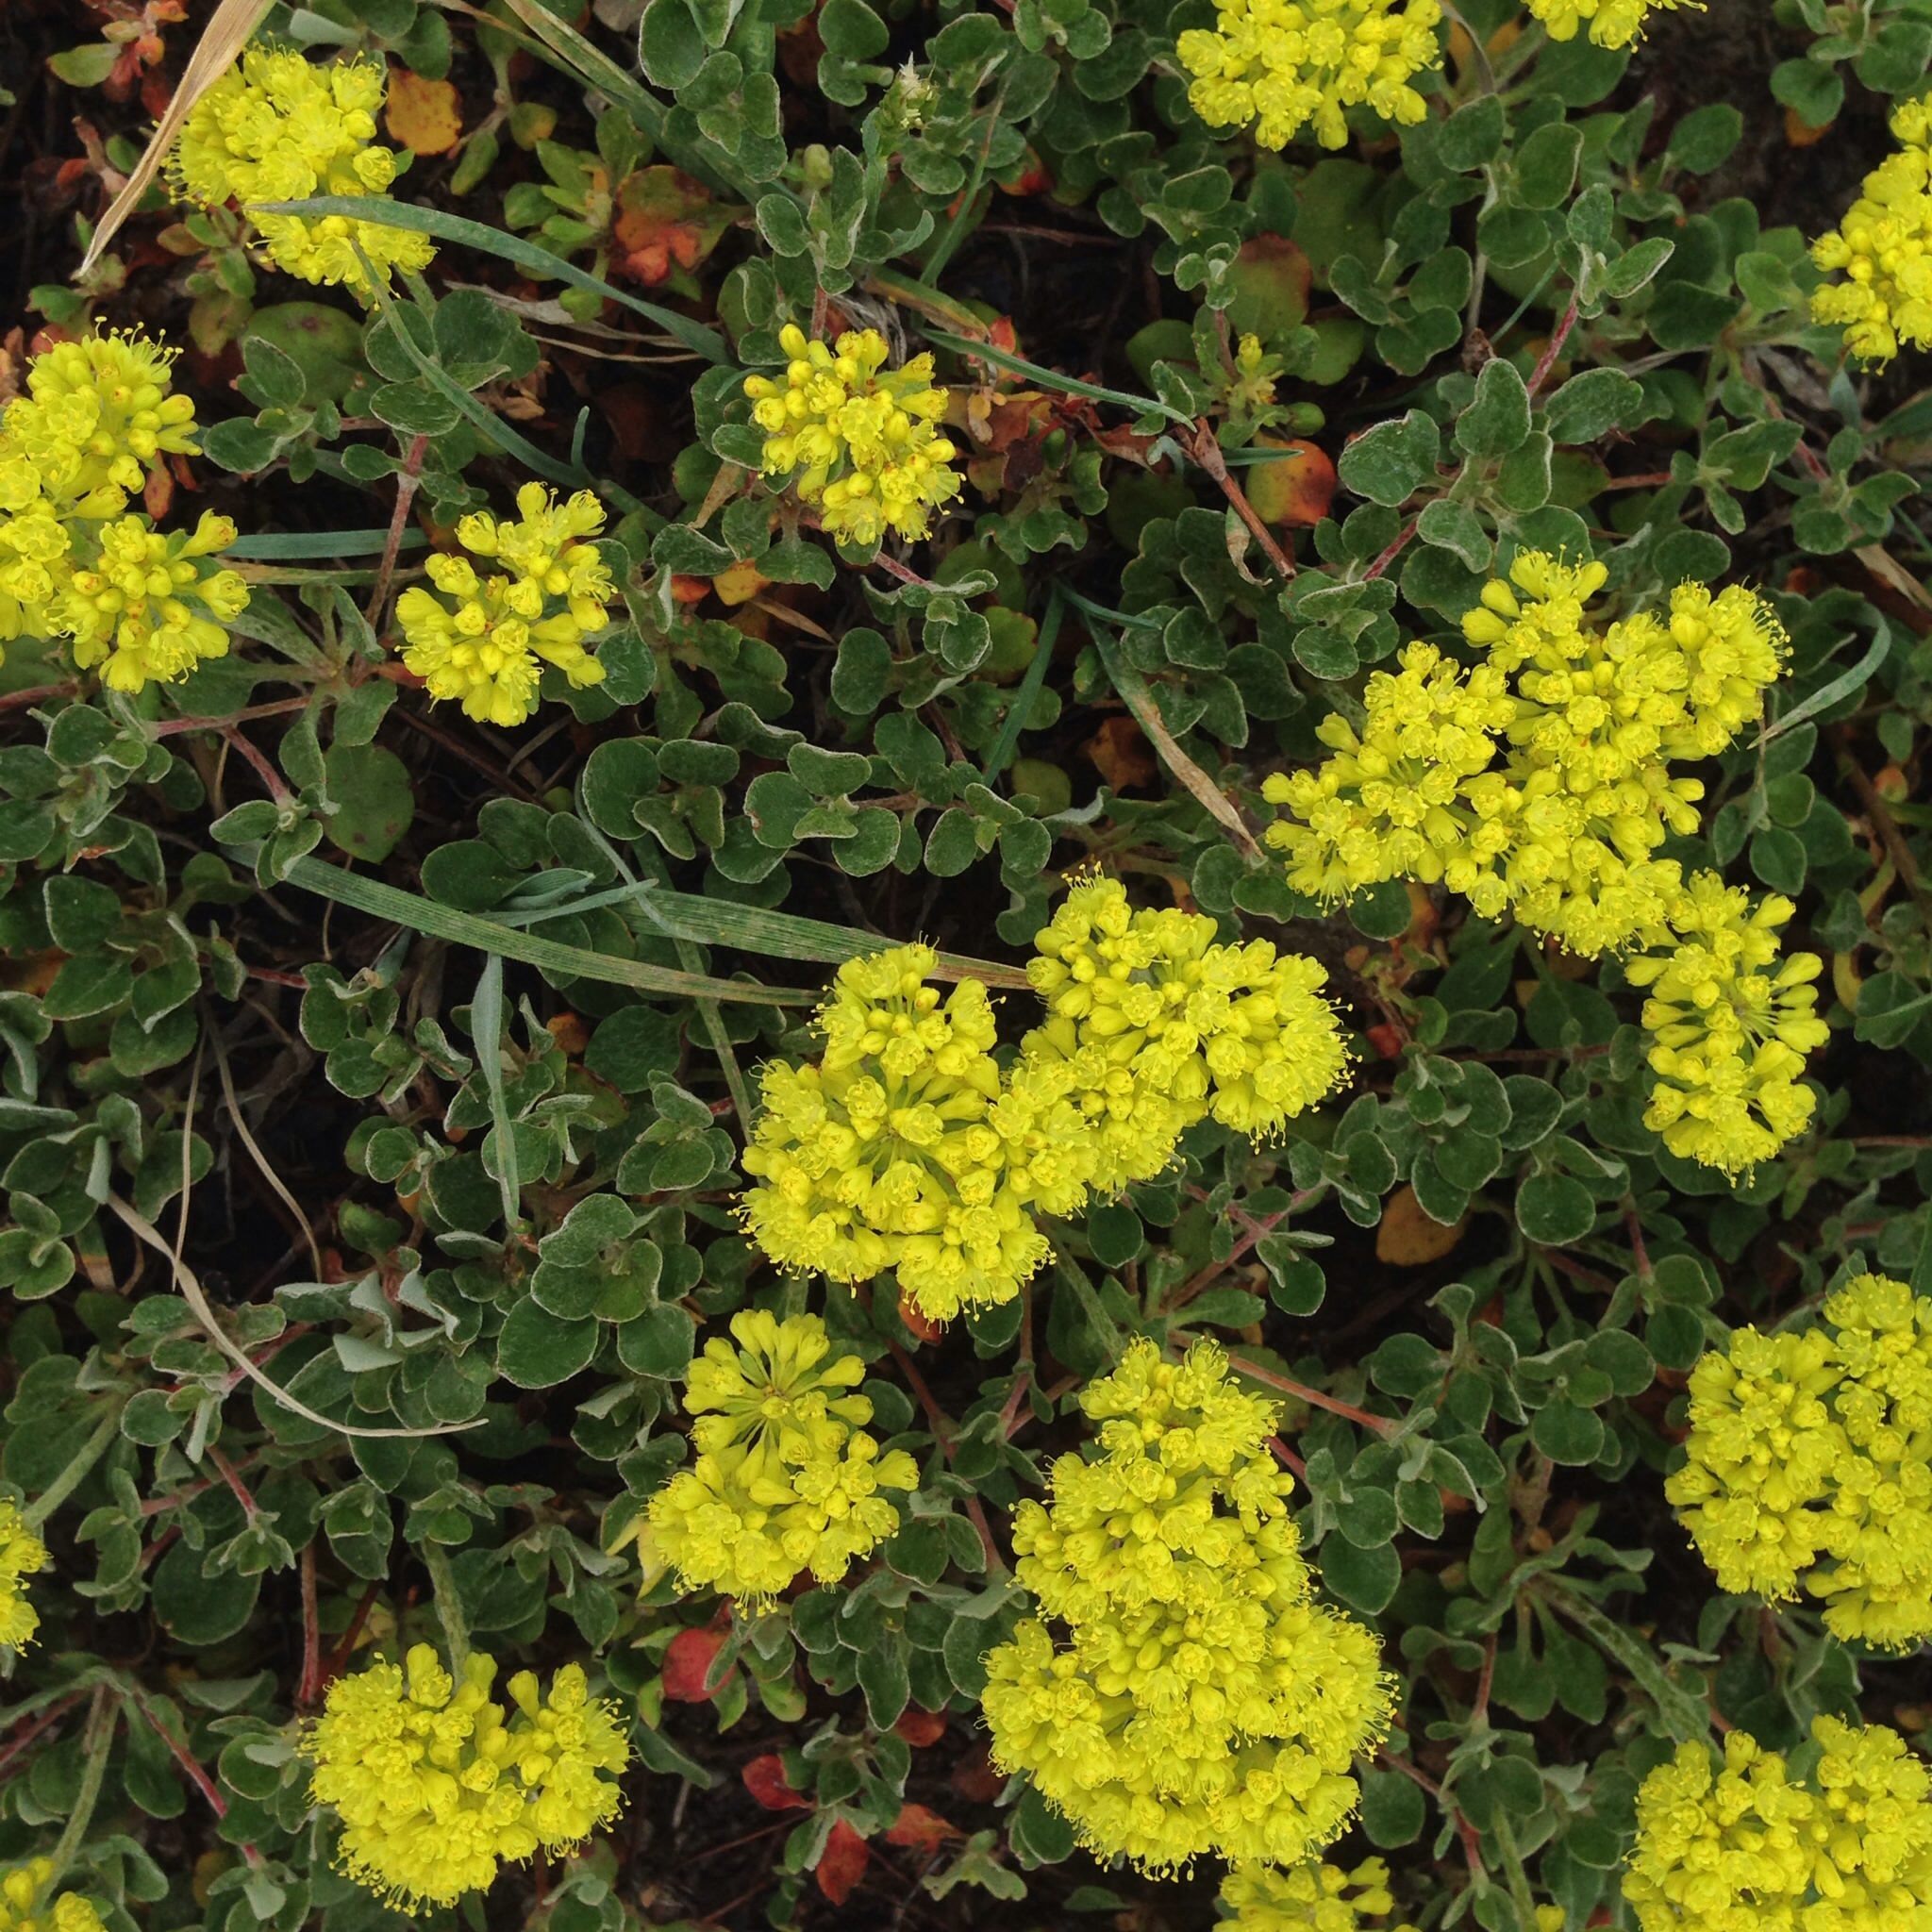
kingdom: Plantae
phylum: Tracheophyta
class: Magnoliopsida
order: Caryophyllales
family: Polygonaceae
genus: Eriogonum
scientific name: Eriogonum umbellatum
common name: Sulfur-buckwheat
